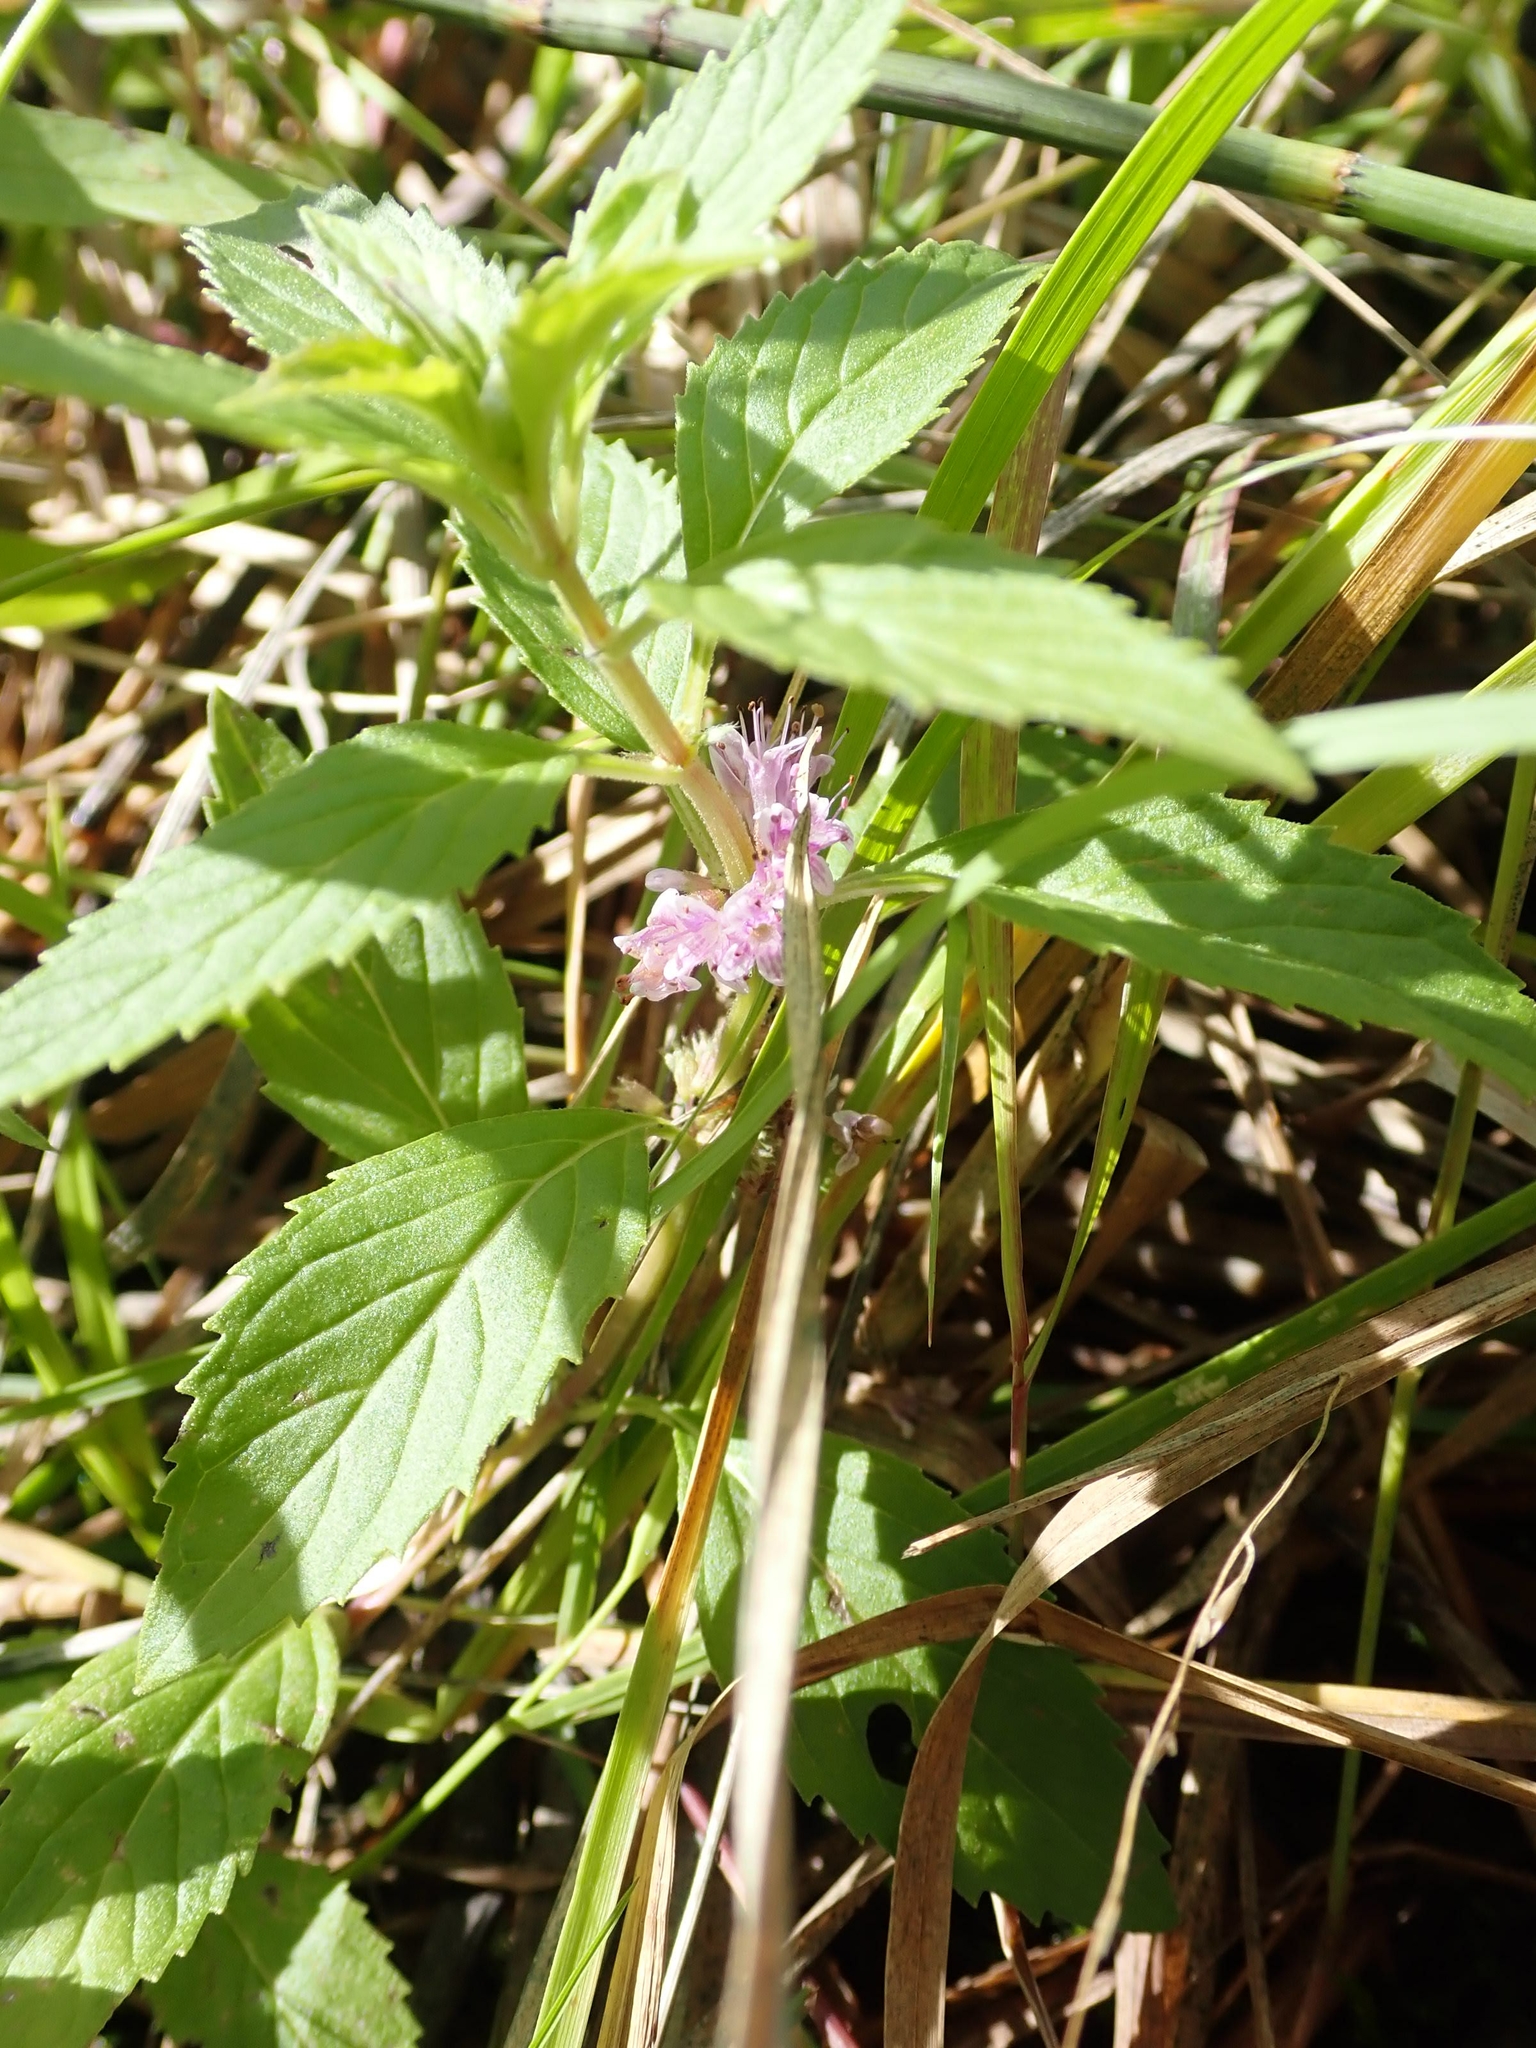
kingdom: Plantae
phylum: Tracheophyta
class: Magnoliopsida
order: Lamiales
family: Lamiaceae
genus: Mentha
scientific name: Mentha canadensis
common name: American corn mint
